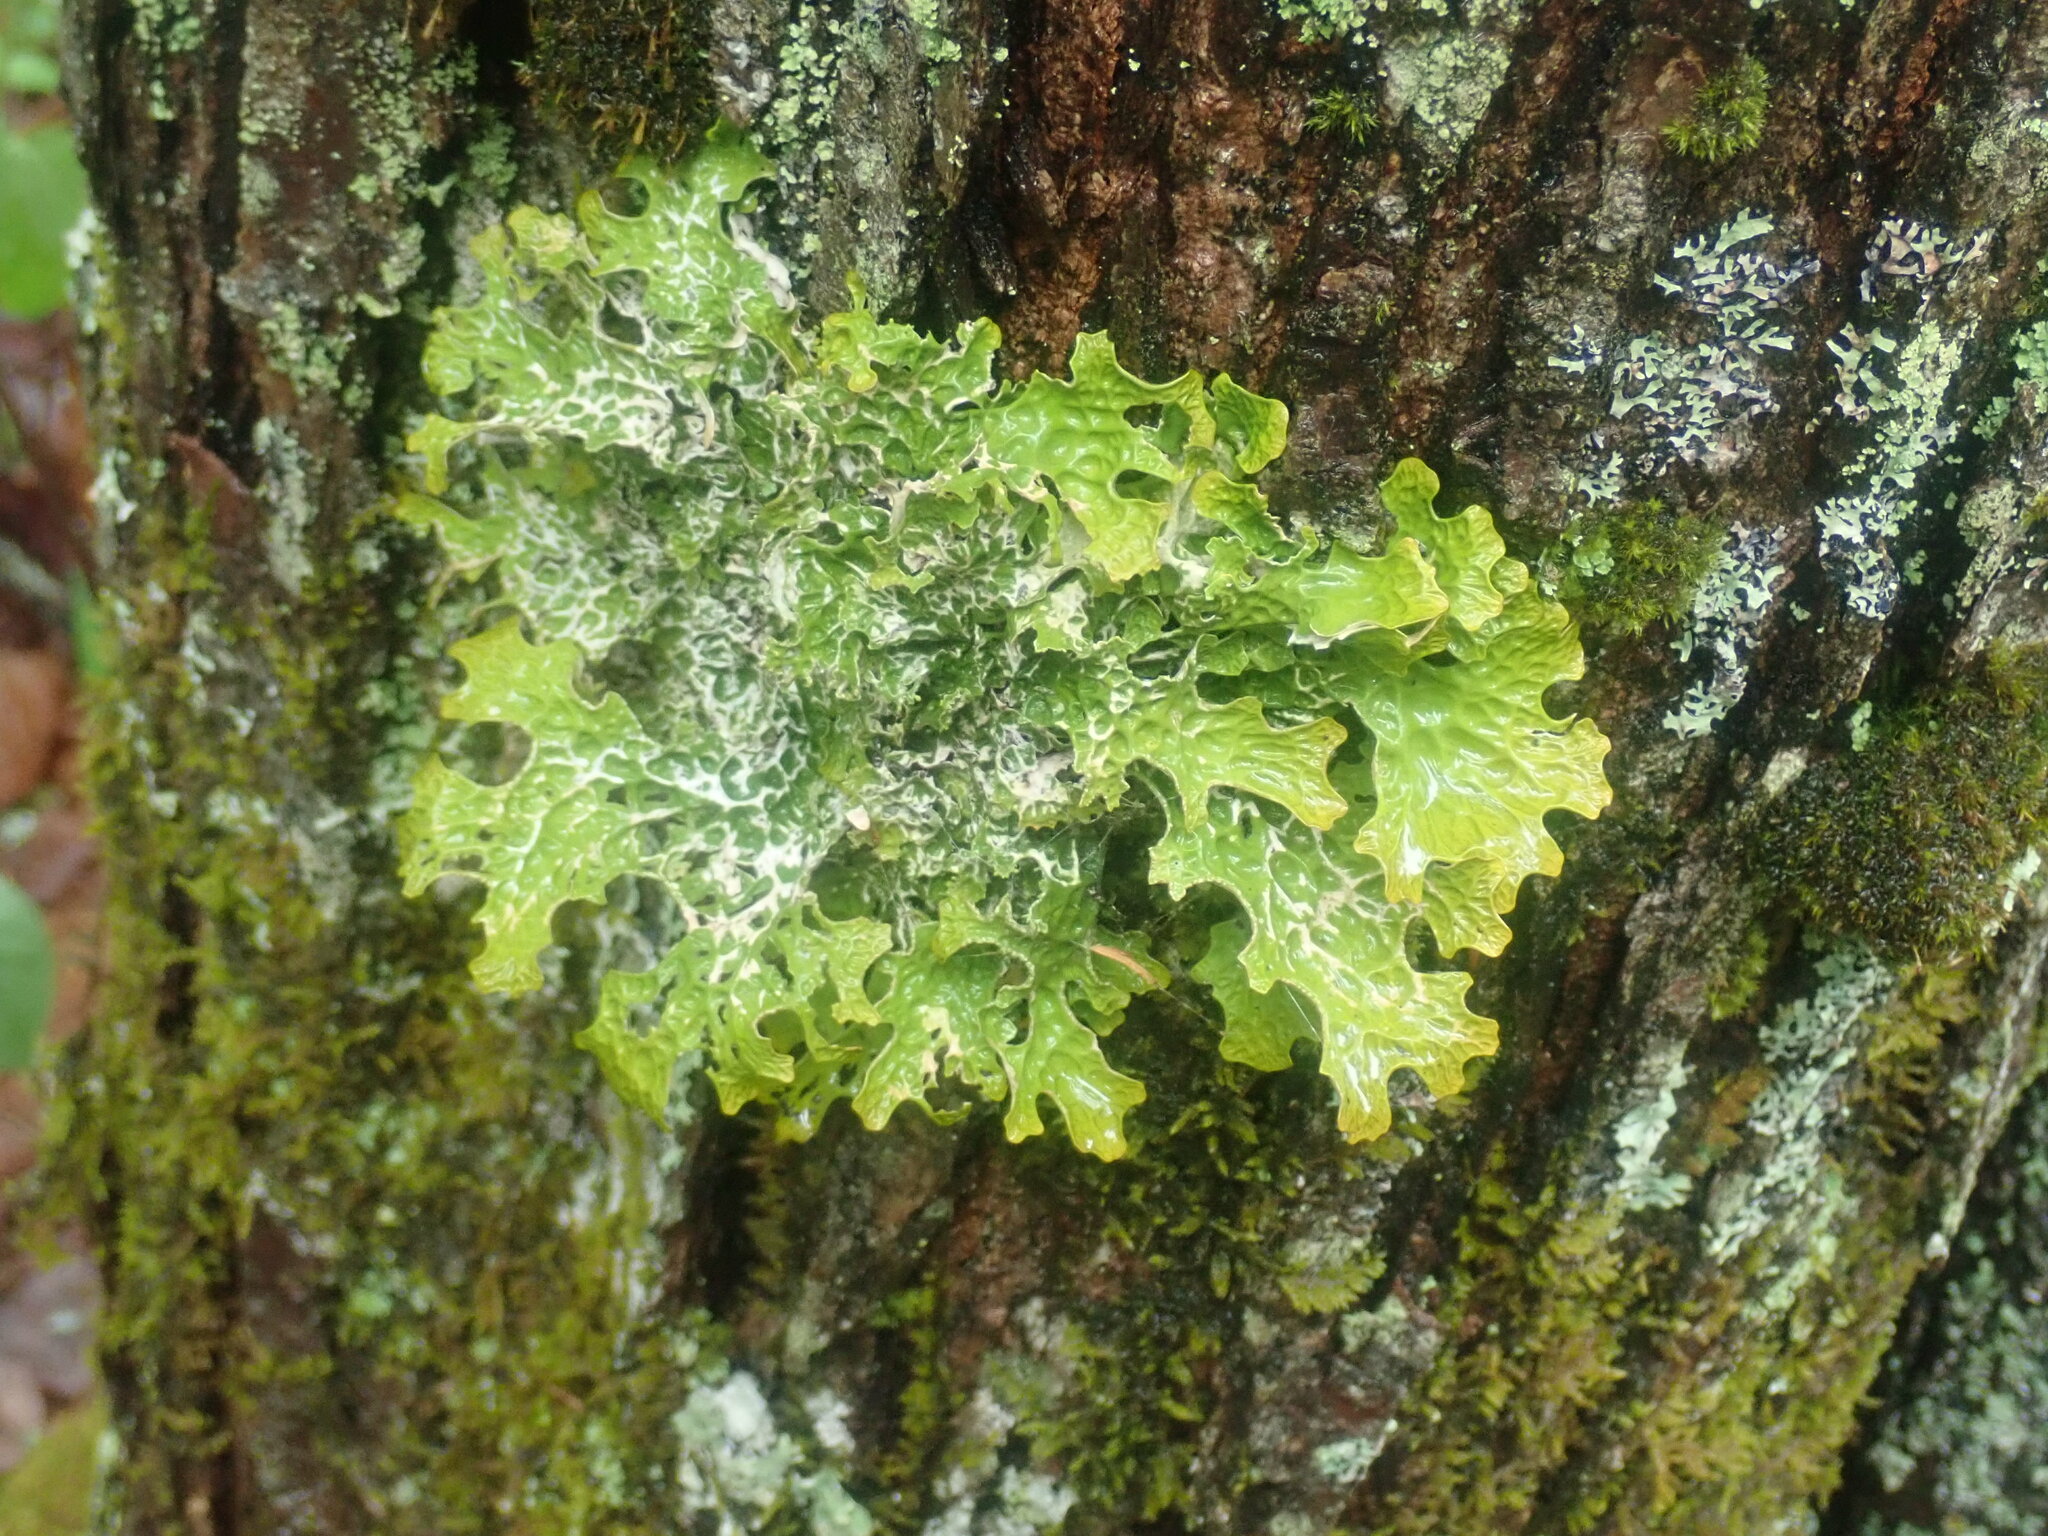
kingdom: Fungi
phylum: Ascomycota
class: Lecanoromycetes
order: Peltigerales
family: Lobariaceae
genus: Lobaria
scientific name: Lobaria pulmonaria
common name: Lungwort
